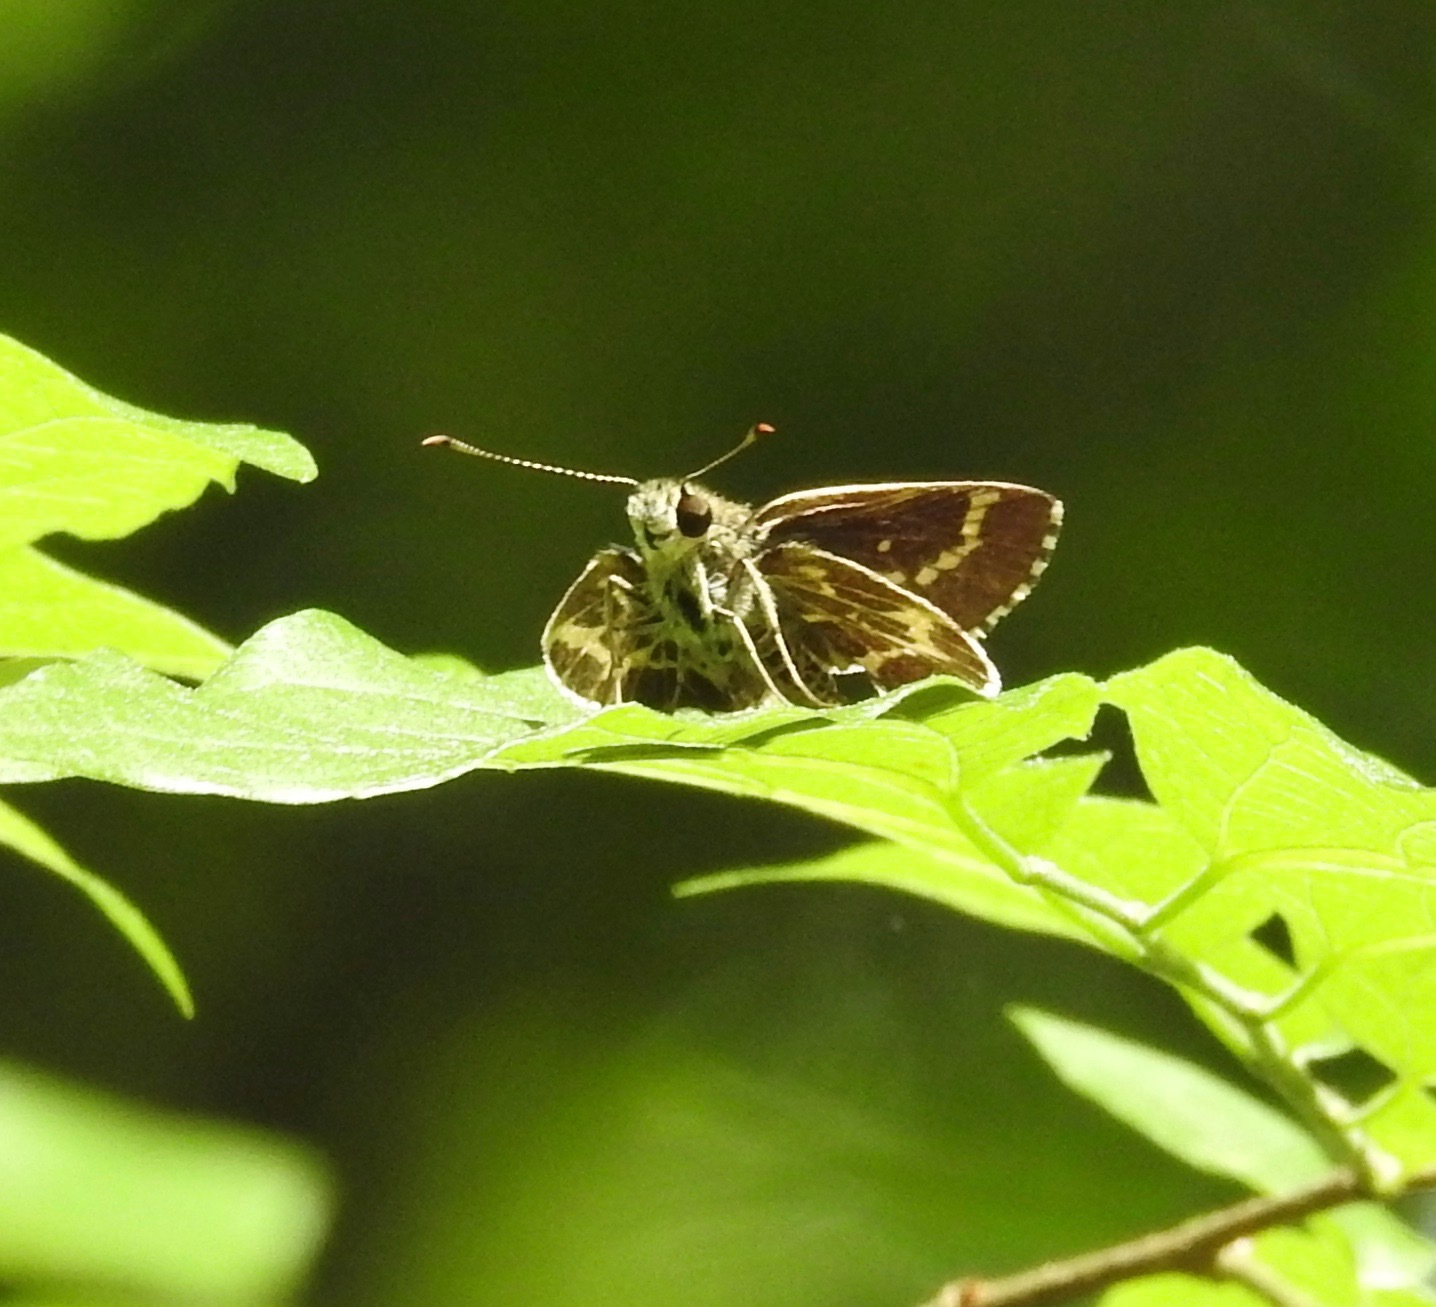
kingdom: Animalia
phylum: Arthropoda
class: Insecta
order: Lepidoptera
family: Hesperiidae
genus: Mastor
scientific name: Mastor aesculapius
